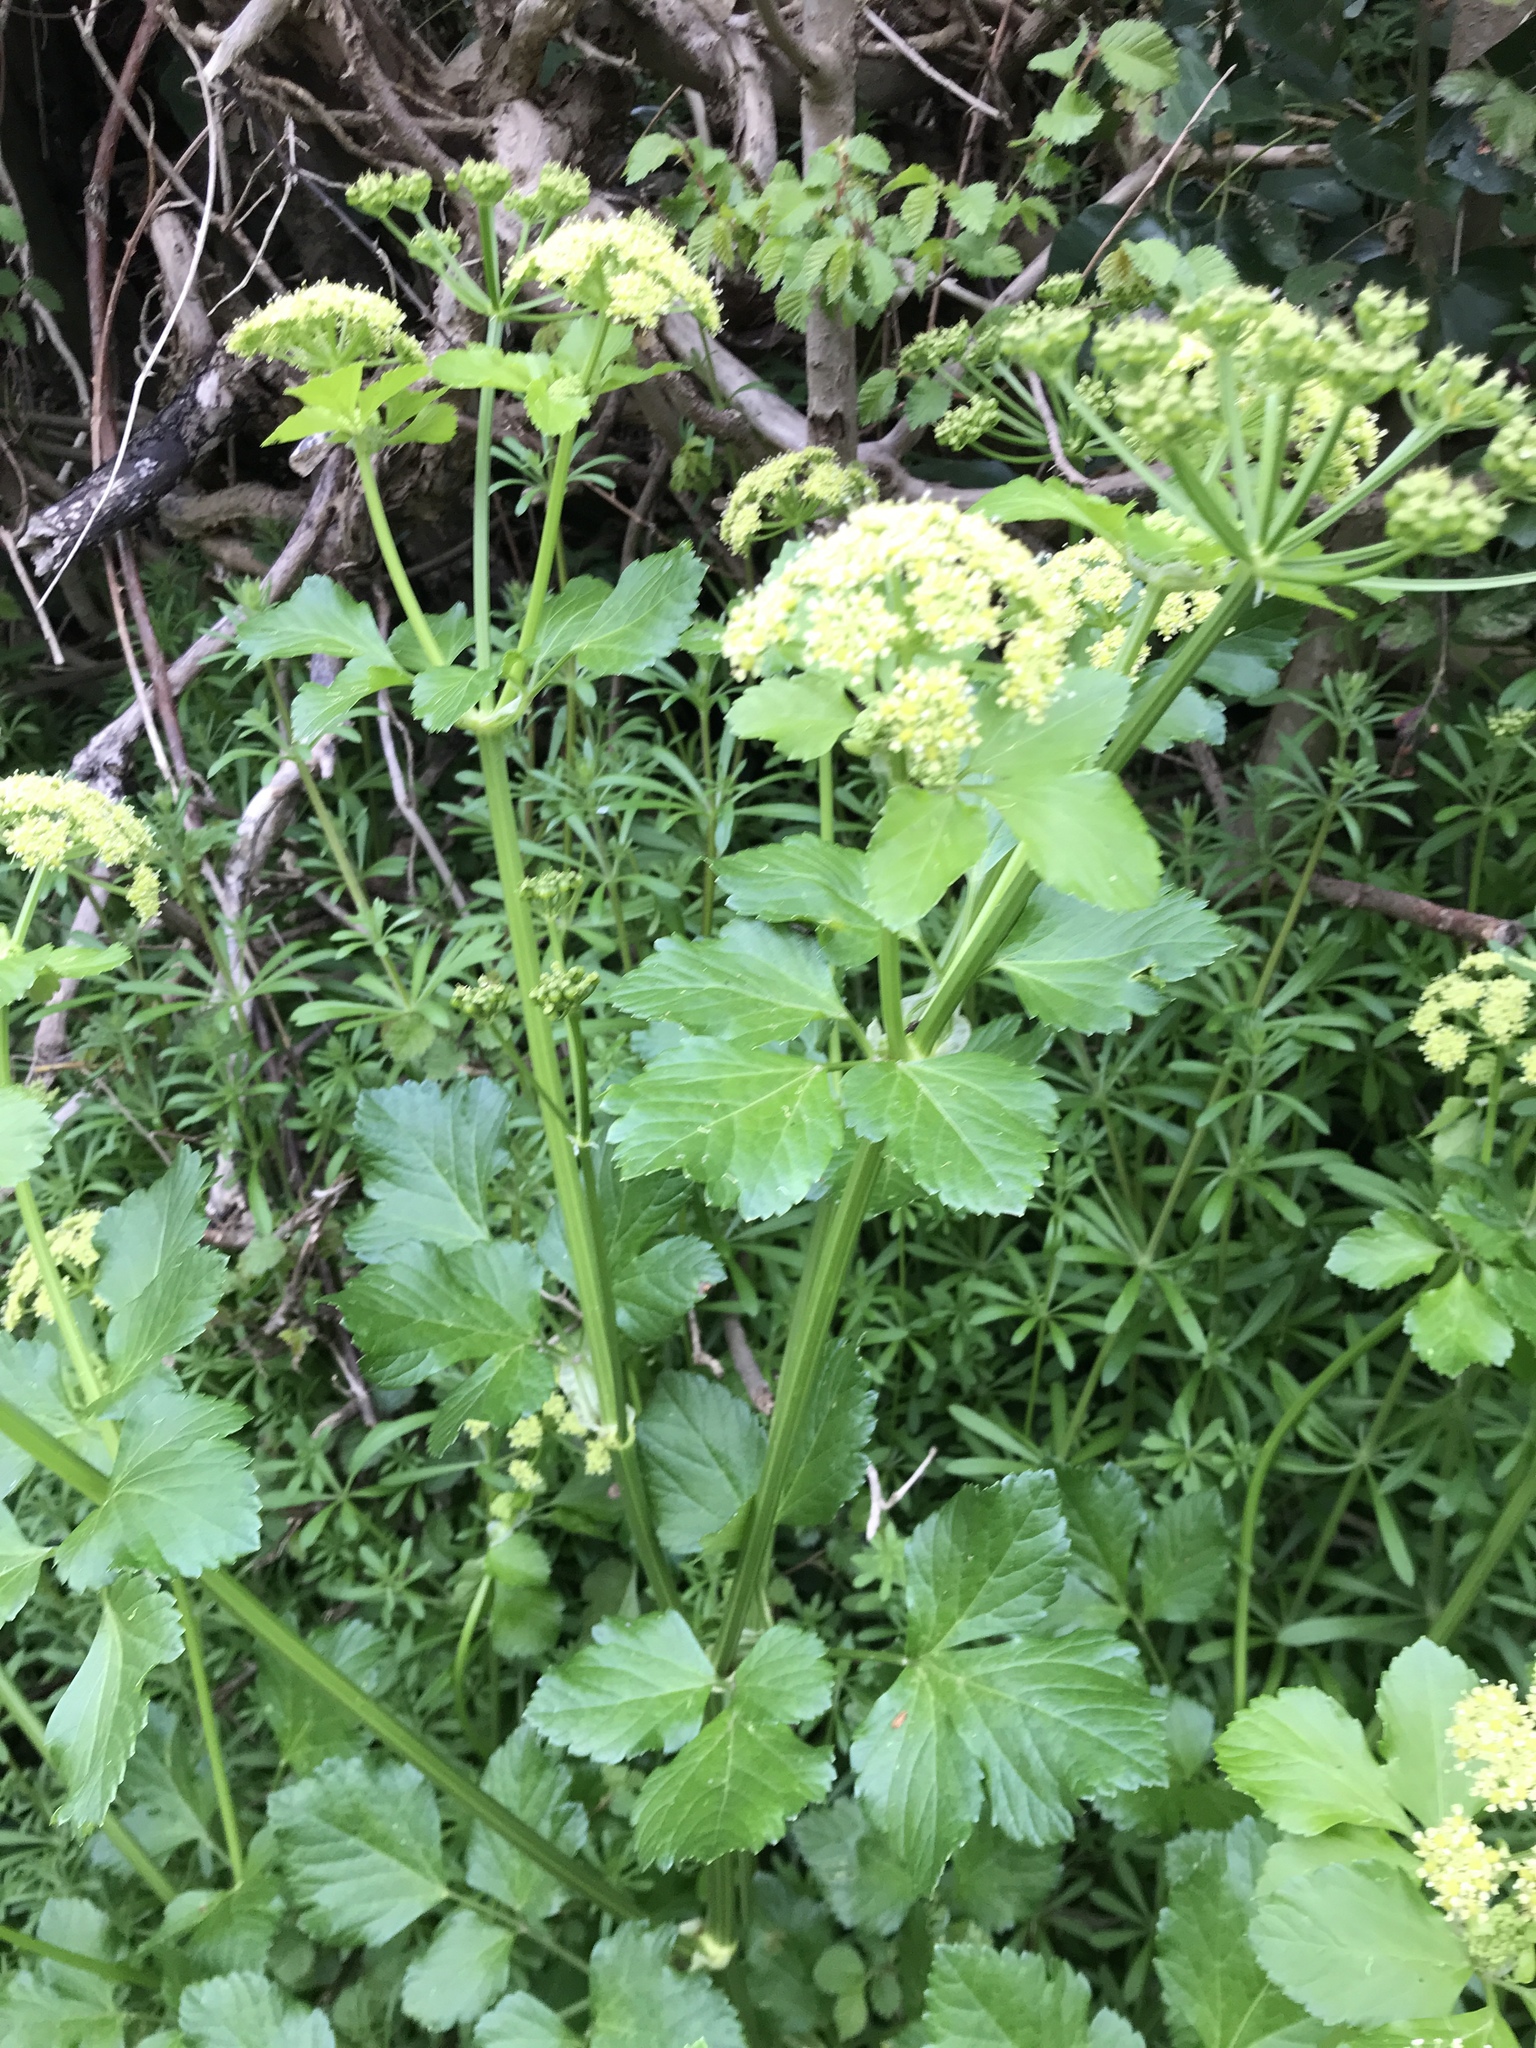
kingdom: Plantae
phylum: Tracheophyta
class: Magnoliopsida
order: Apiales
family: Apiaceae
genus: Smyrnium
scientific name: Smyrnium olusatrum
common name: Alexanders
